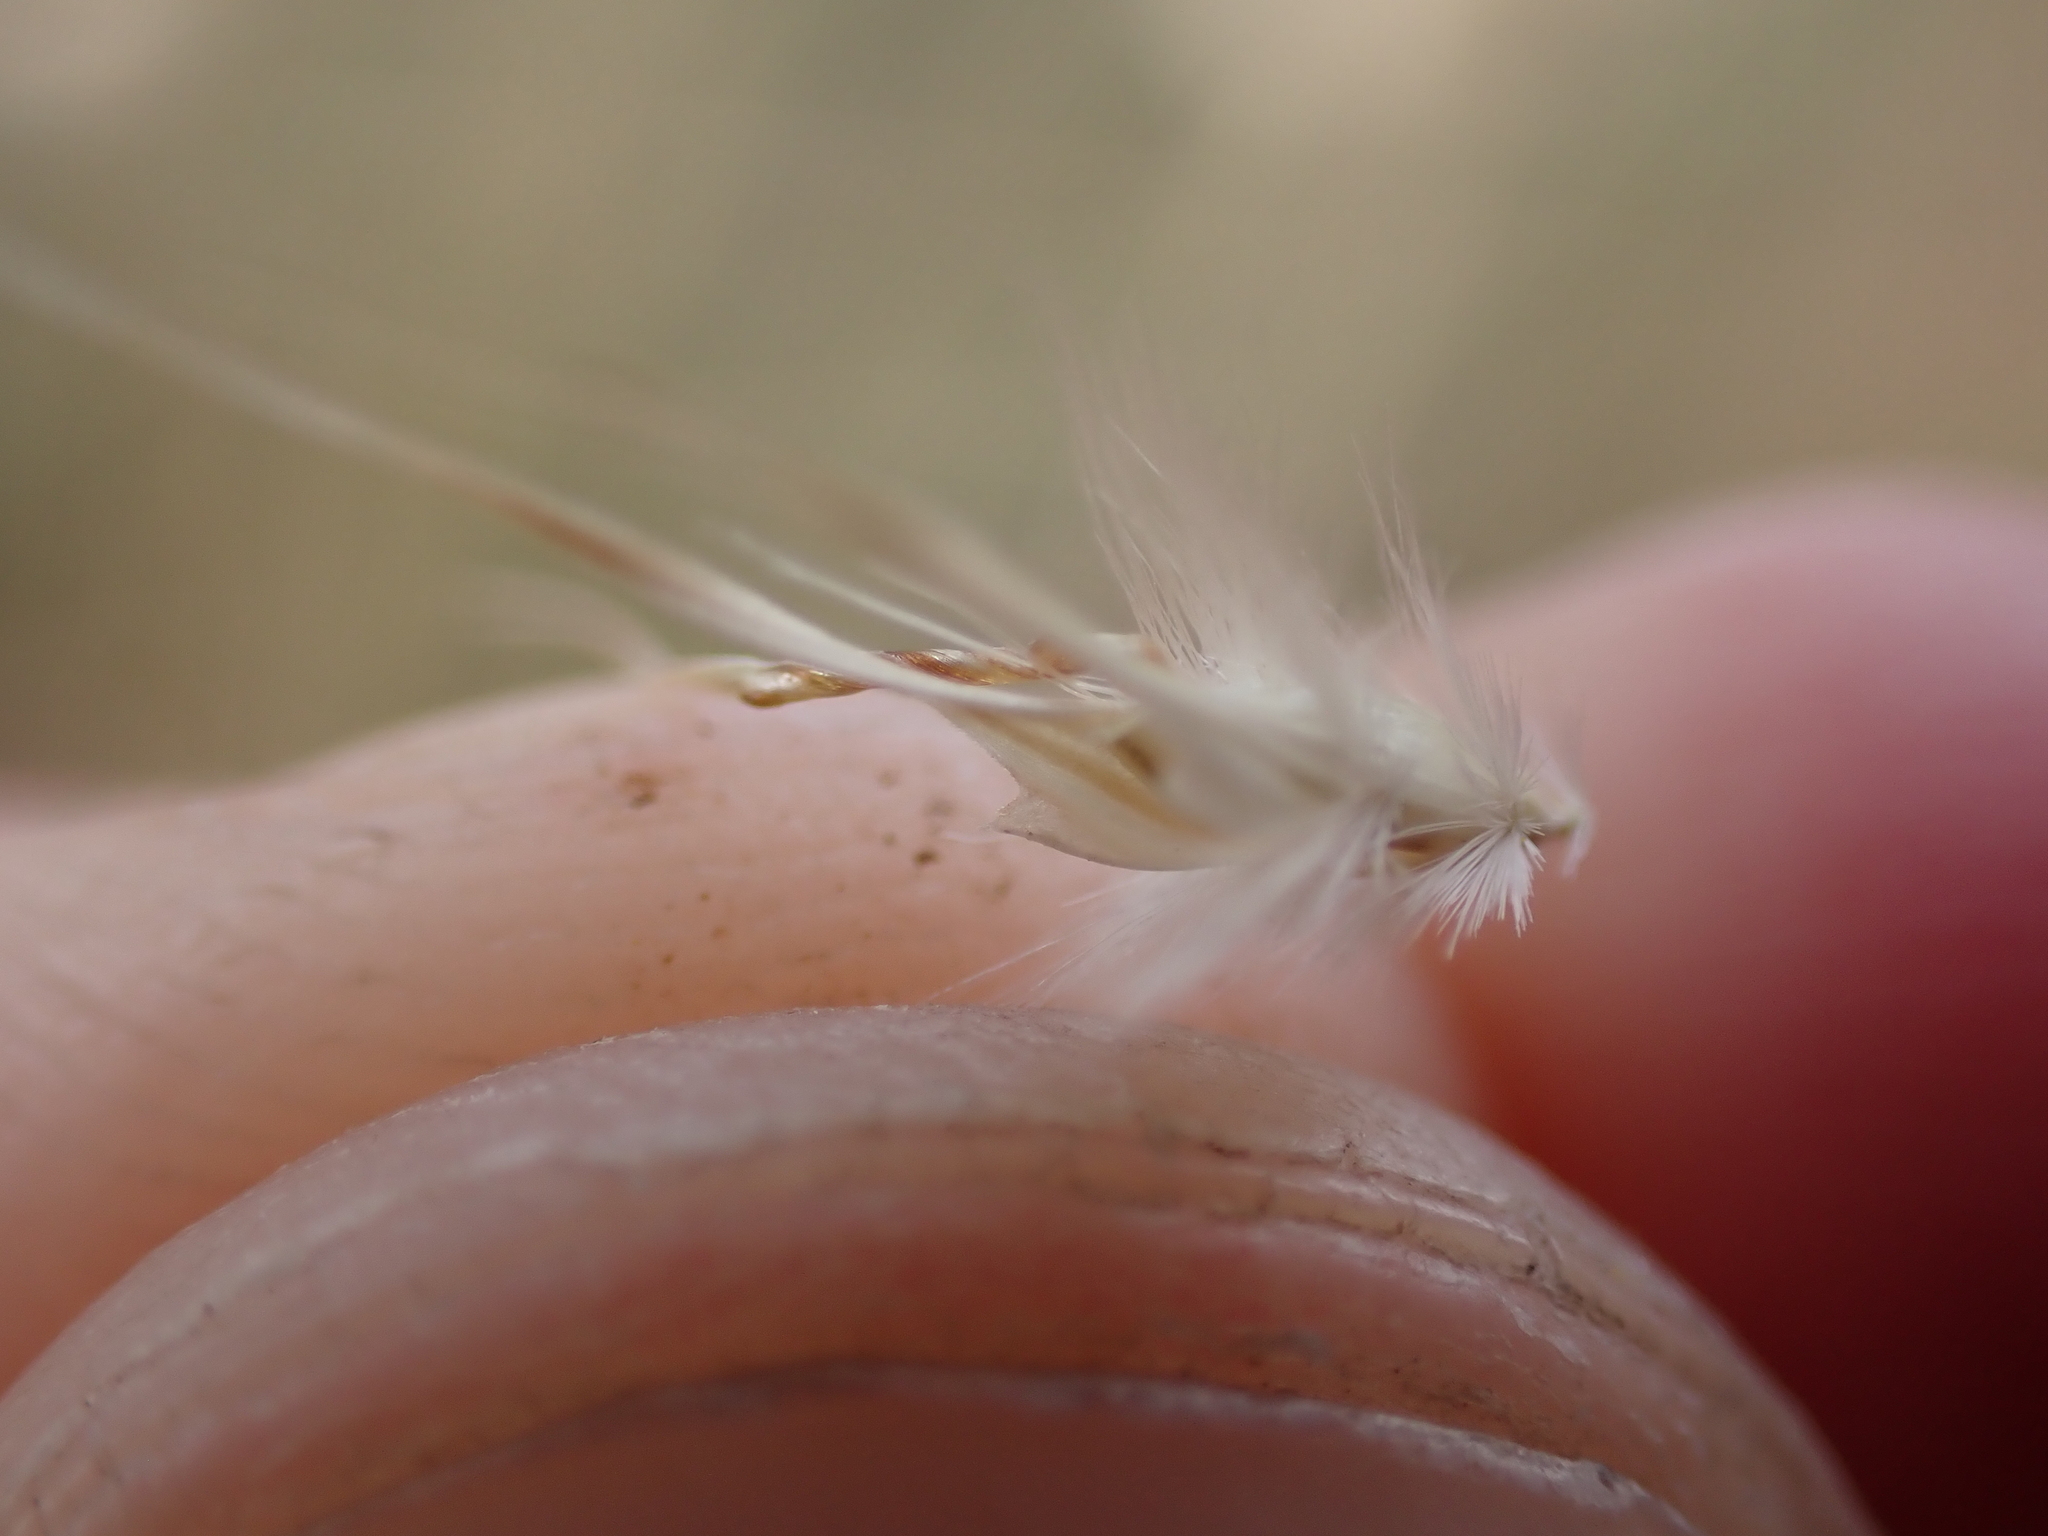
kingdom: Plantae
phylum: Tracheophyta
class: Liliopsida
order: Poales
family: Poaceae
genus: Rytidosperma
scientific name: Rytidosperma auriculatum
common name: Lobed wallaby grass
